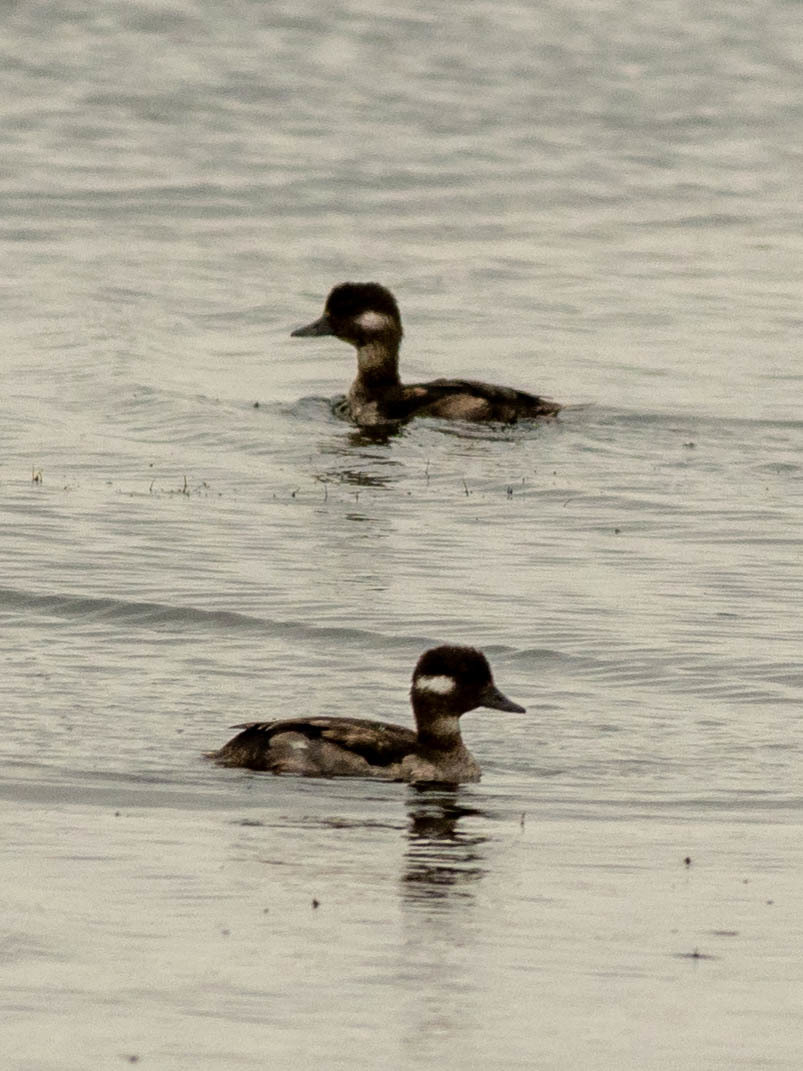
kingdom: Animalia
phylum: Chordata
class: Aves
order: Anseriformes
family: Anatidae
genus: Bucephala
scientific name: Bucephala albeola
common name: Bufflehead
